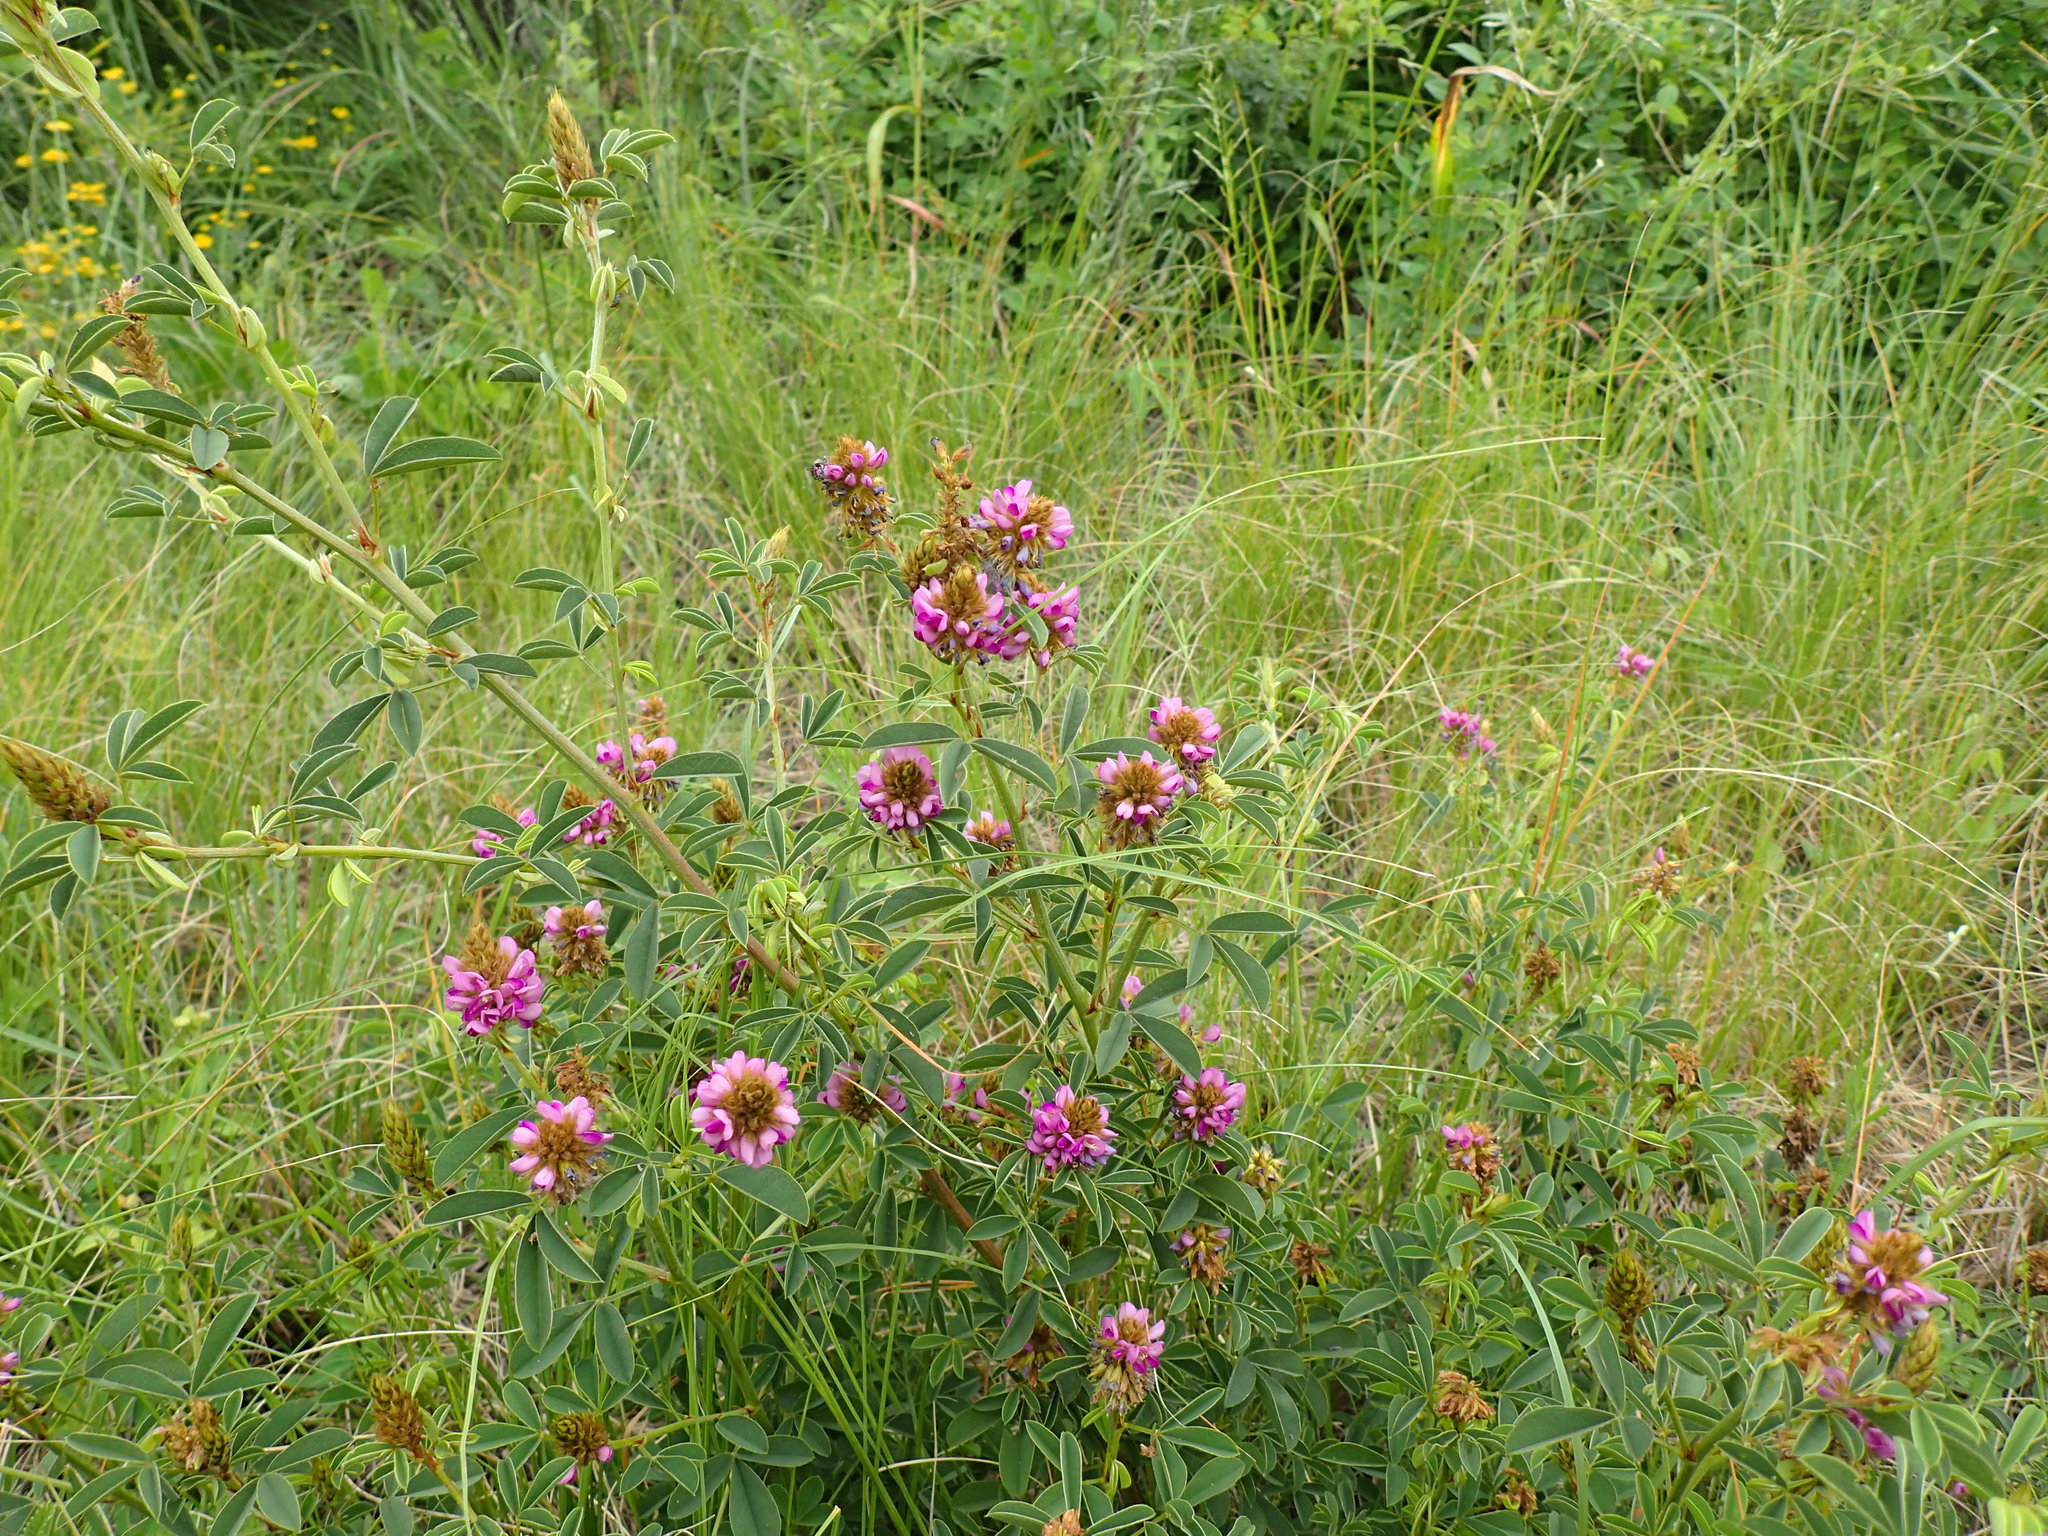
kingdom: Plantae
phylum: Tracheophyta
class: Magnoliopsida
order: Fabales
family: Fabaceae
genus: Grona
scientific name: Grona caffra
